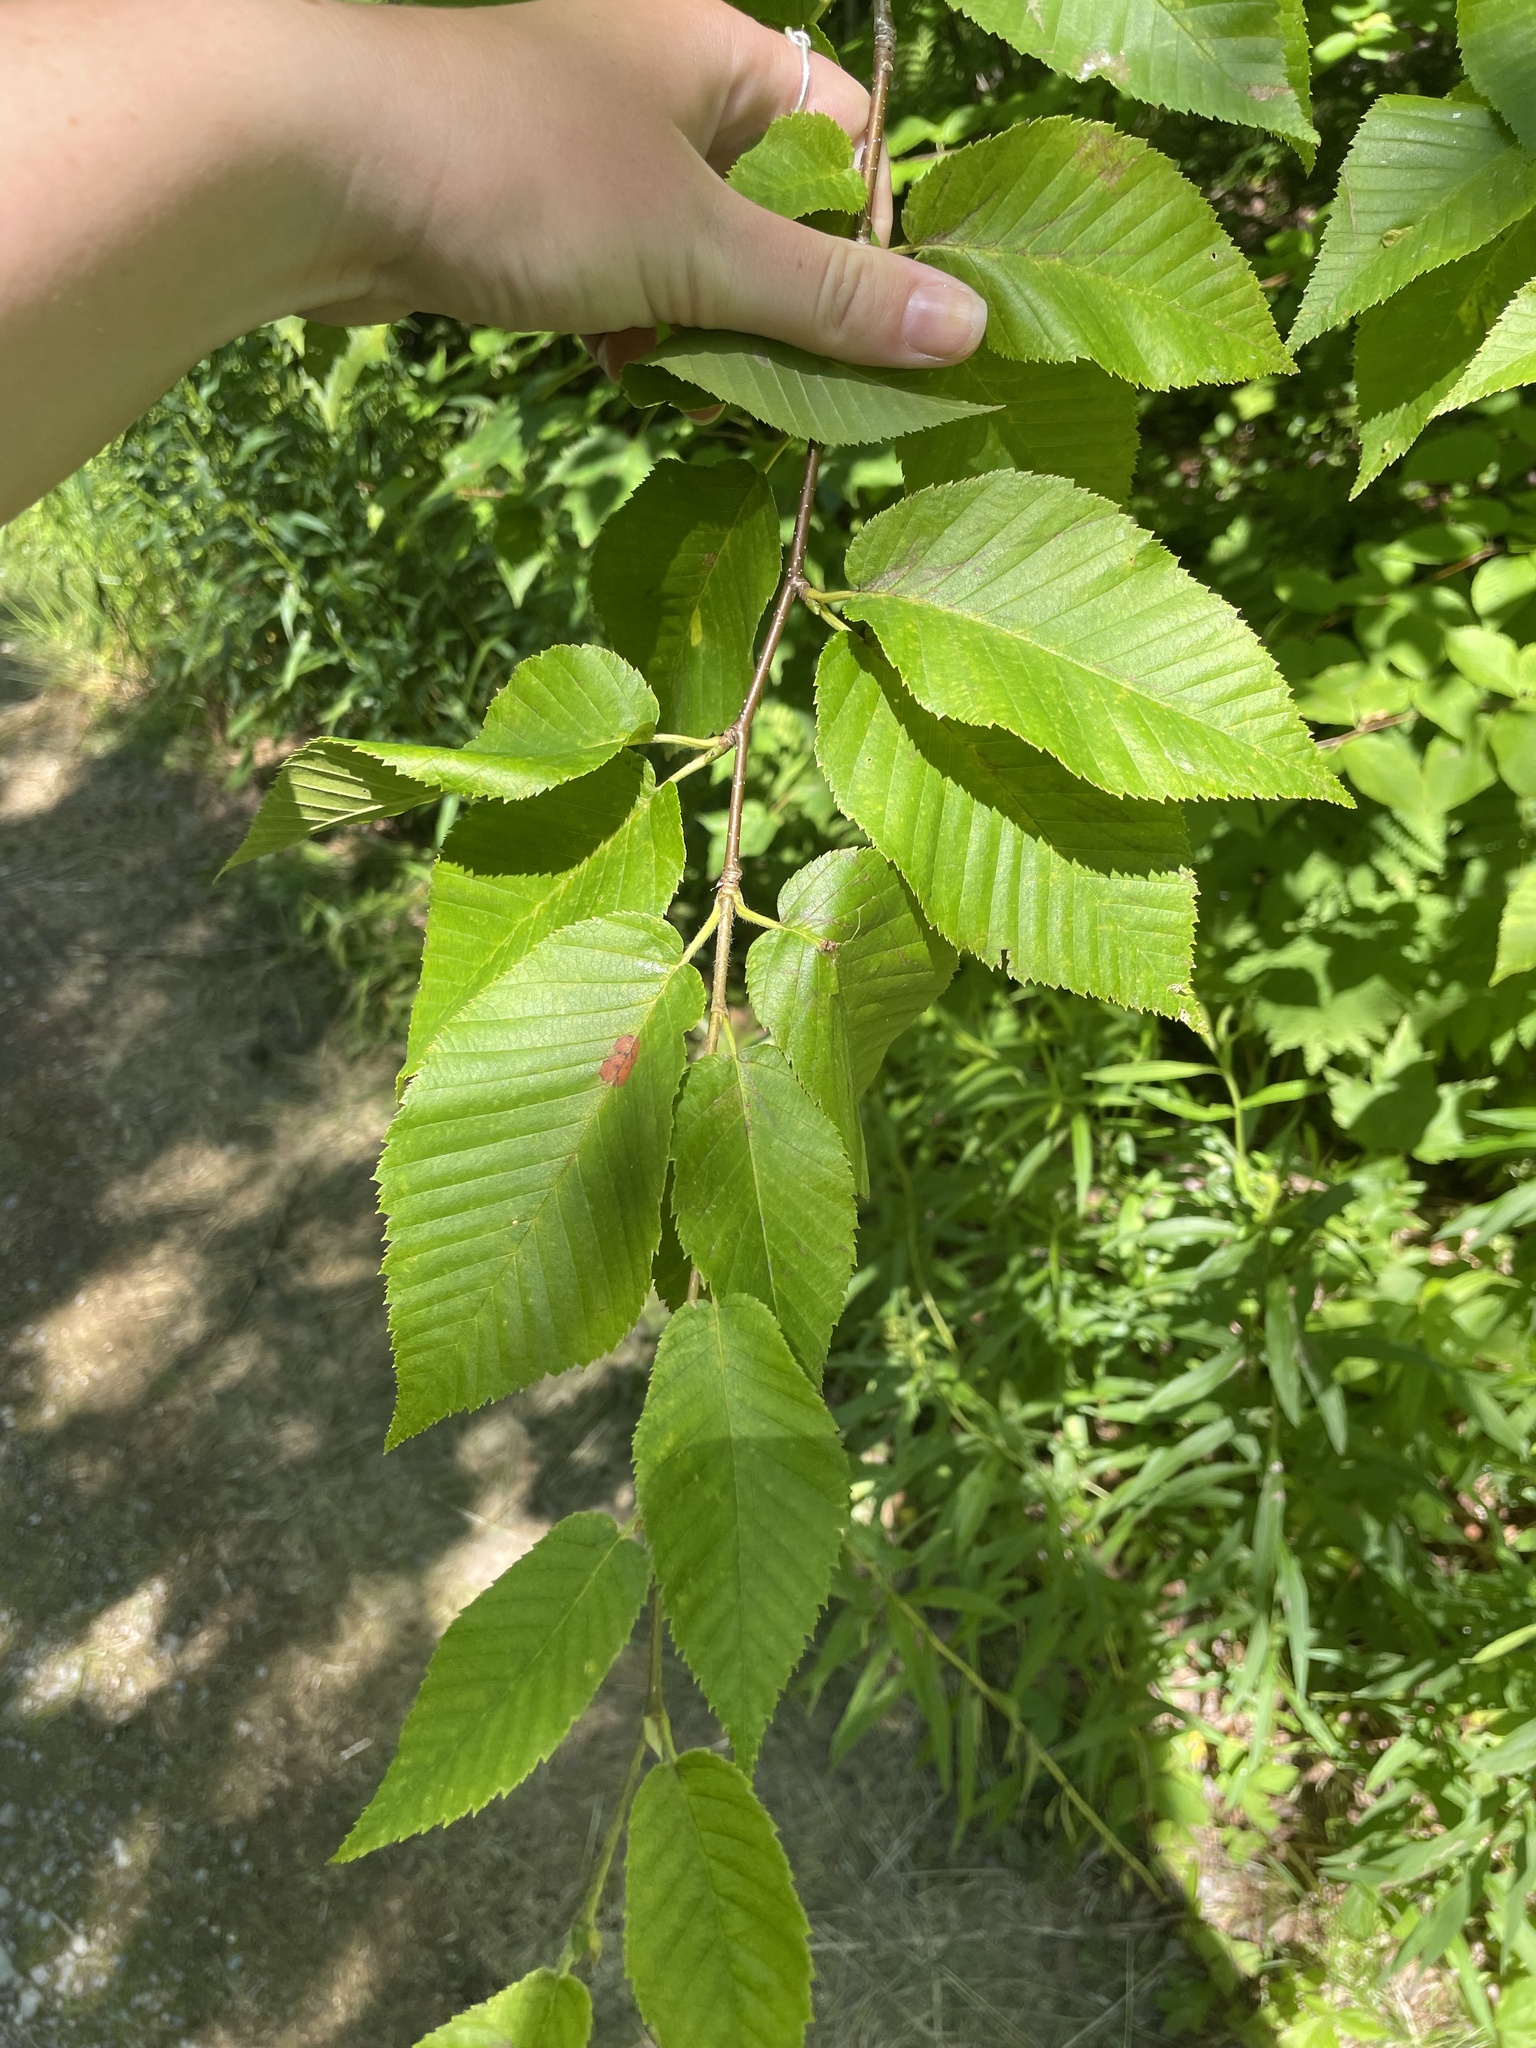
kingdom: Plantae
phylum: Tracheophyta
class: Magnoliopsida
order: Fagales
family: Betulaceae
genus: Betula
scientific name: Betula alleghaniensis
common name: Yellow birch
